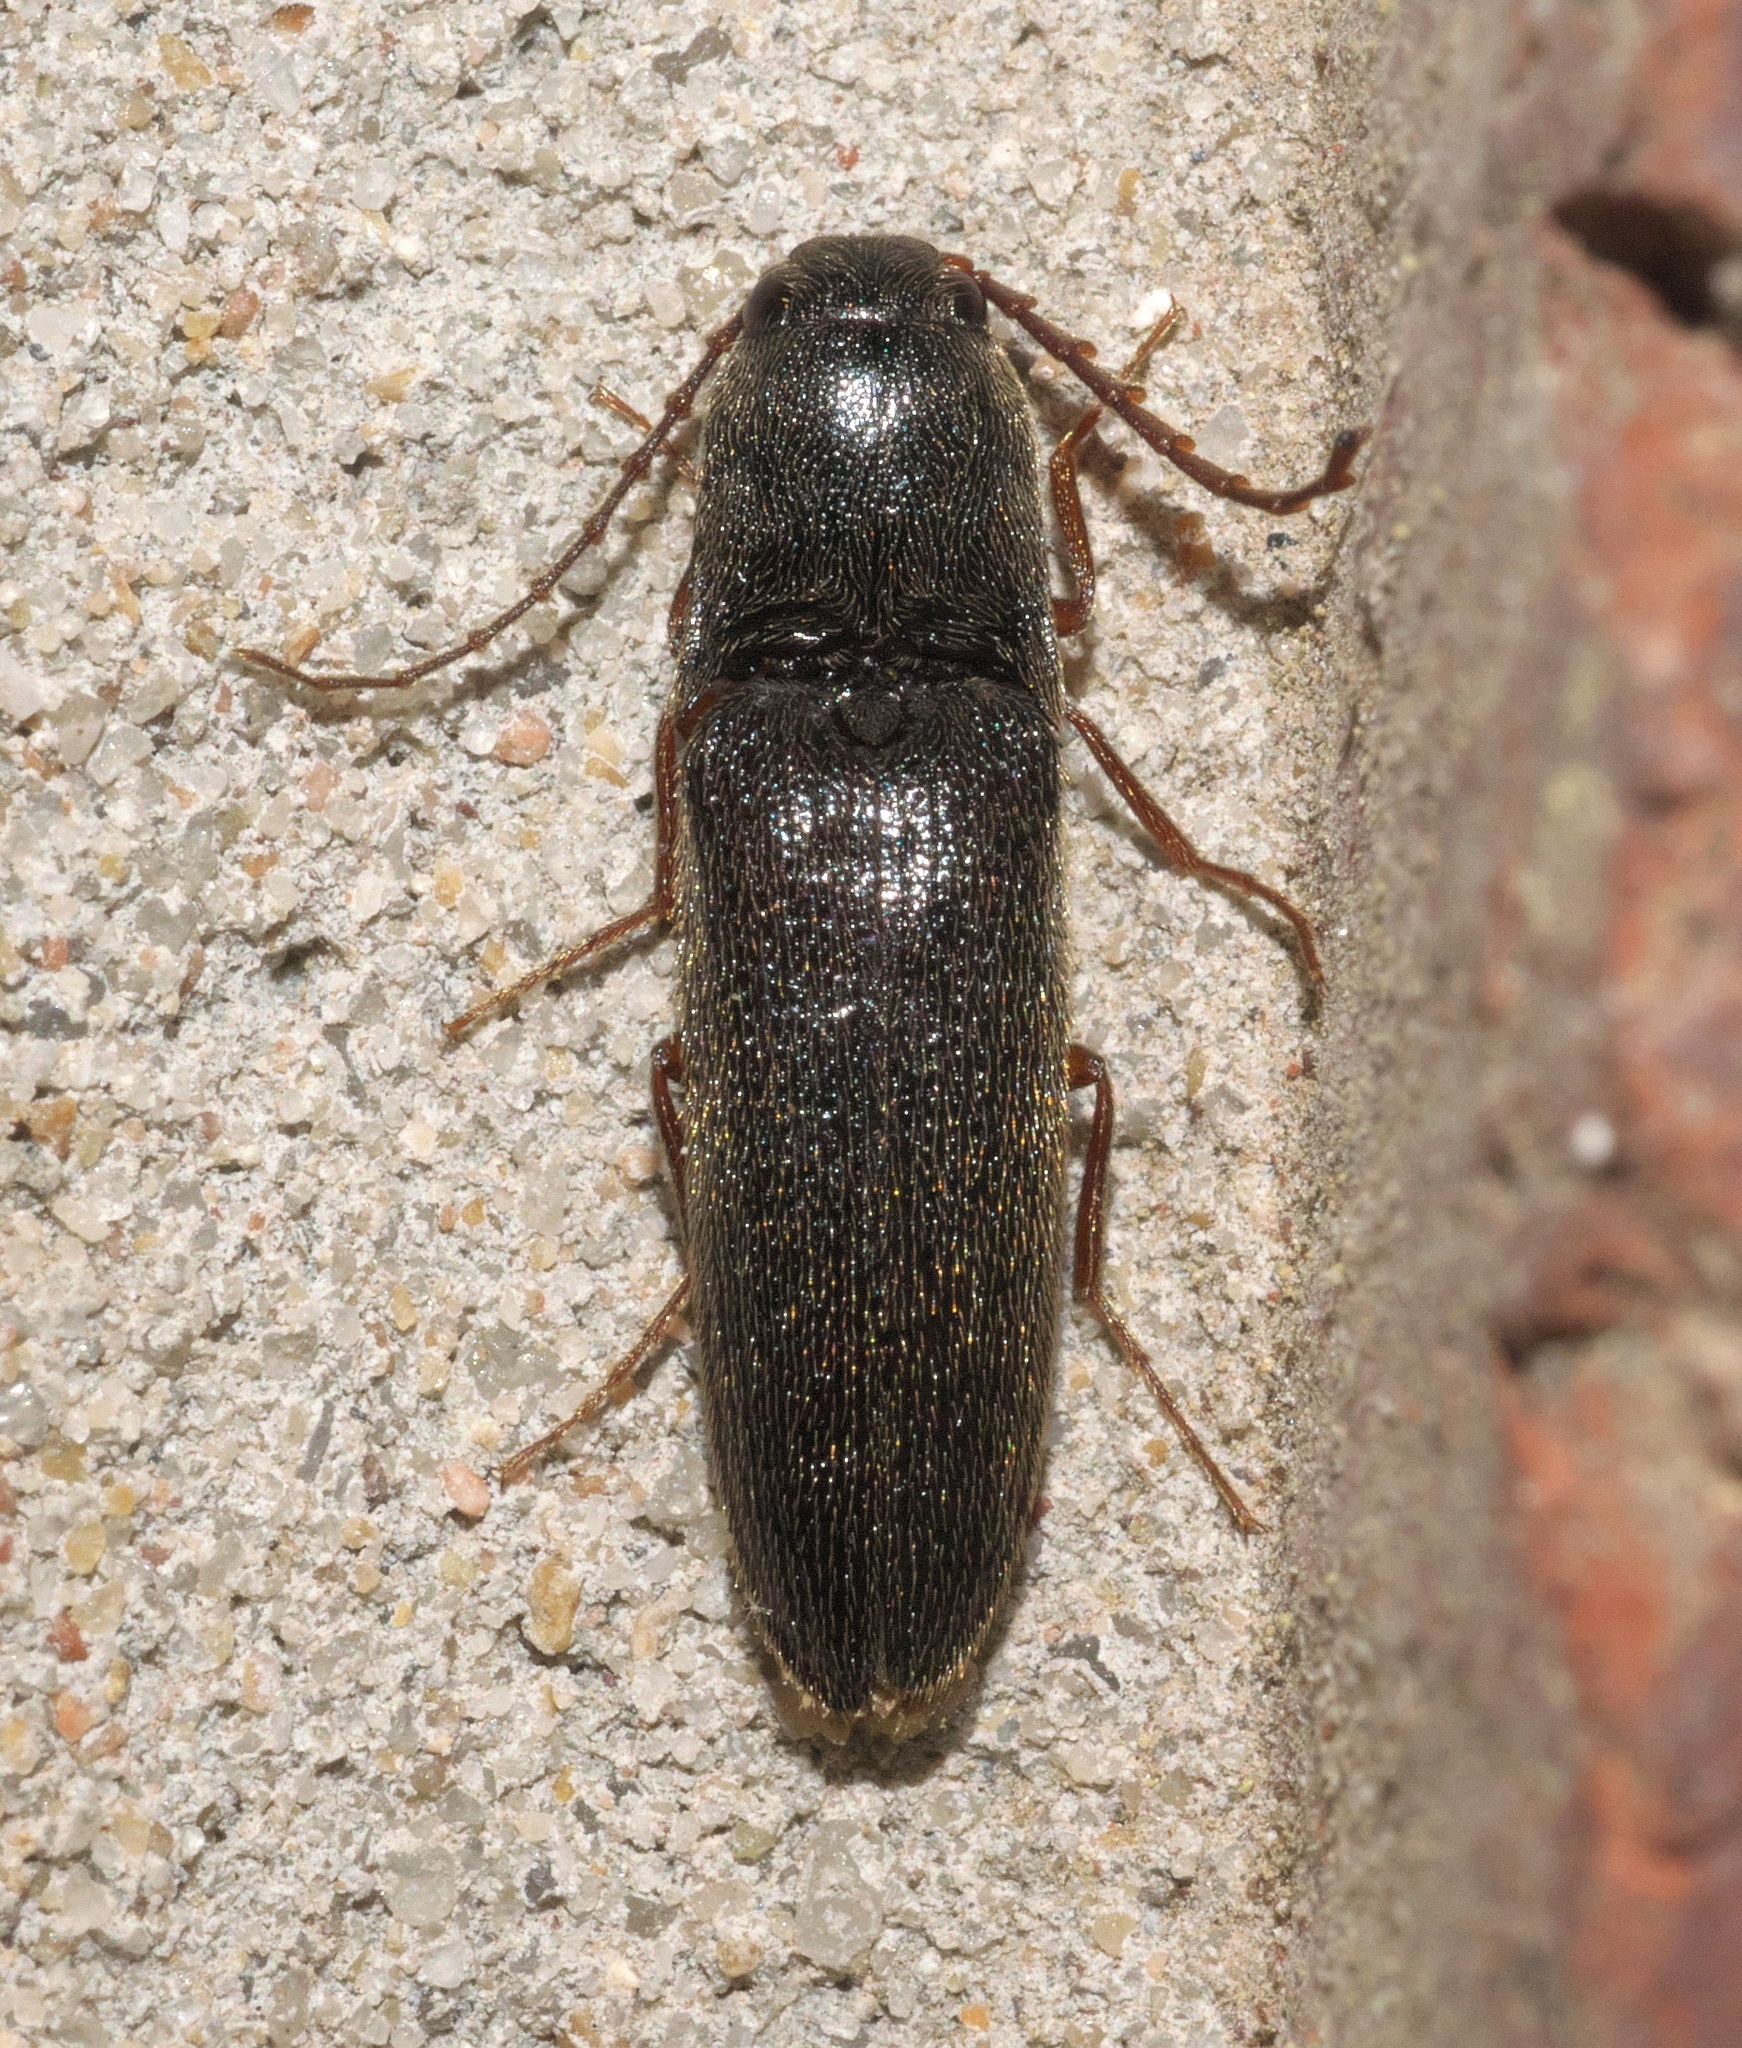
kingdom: Animalia
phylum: Arthropoda
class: Insecta
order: Coleoptera
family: Elateridae
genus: Megapenthes
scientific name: Megapenthes insignis
